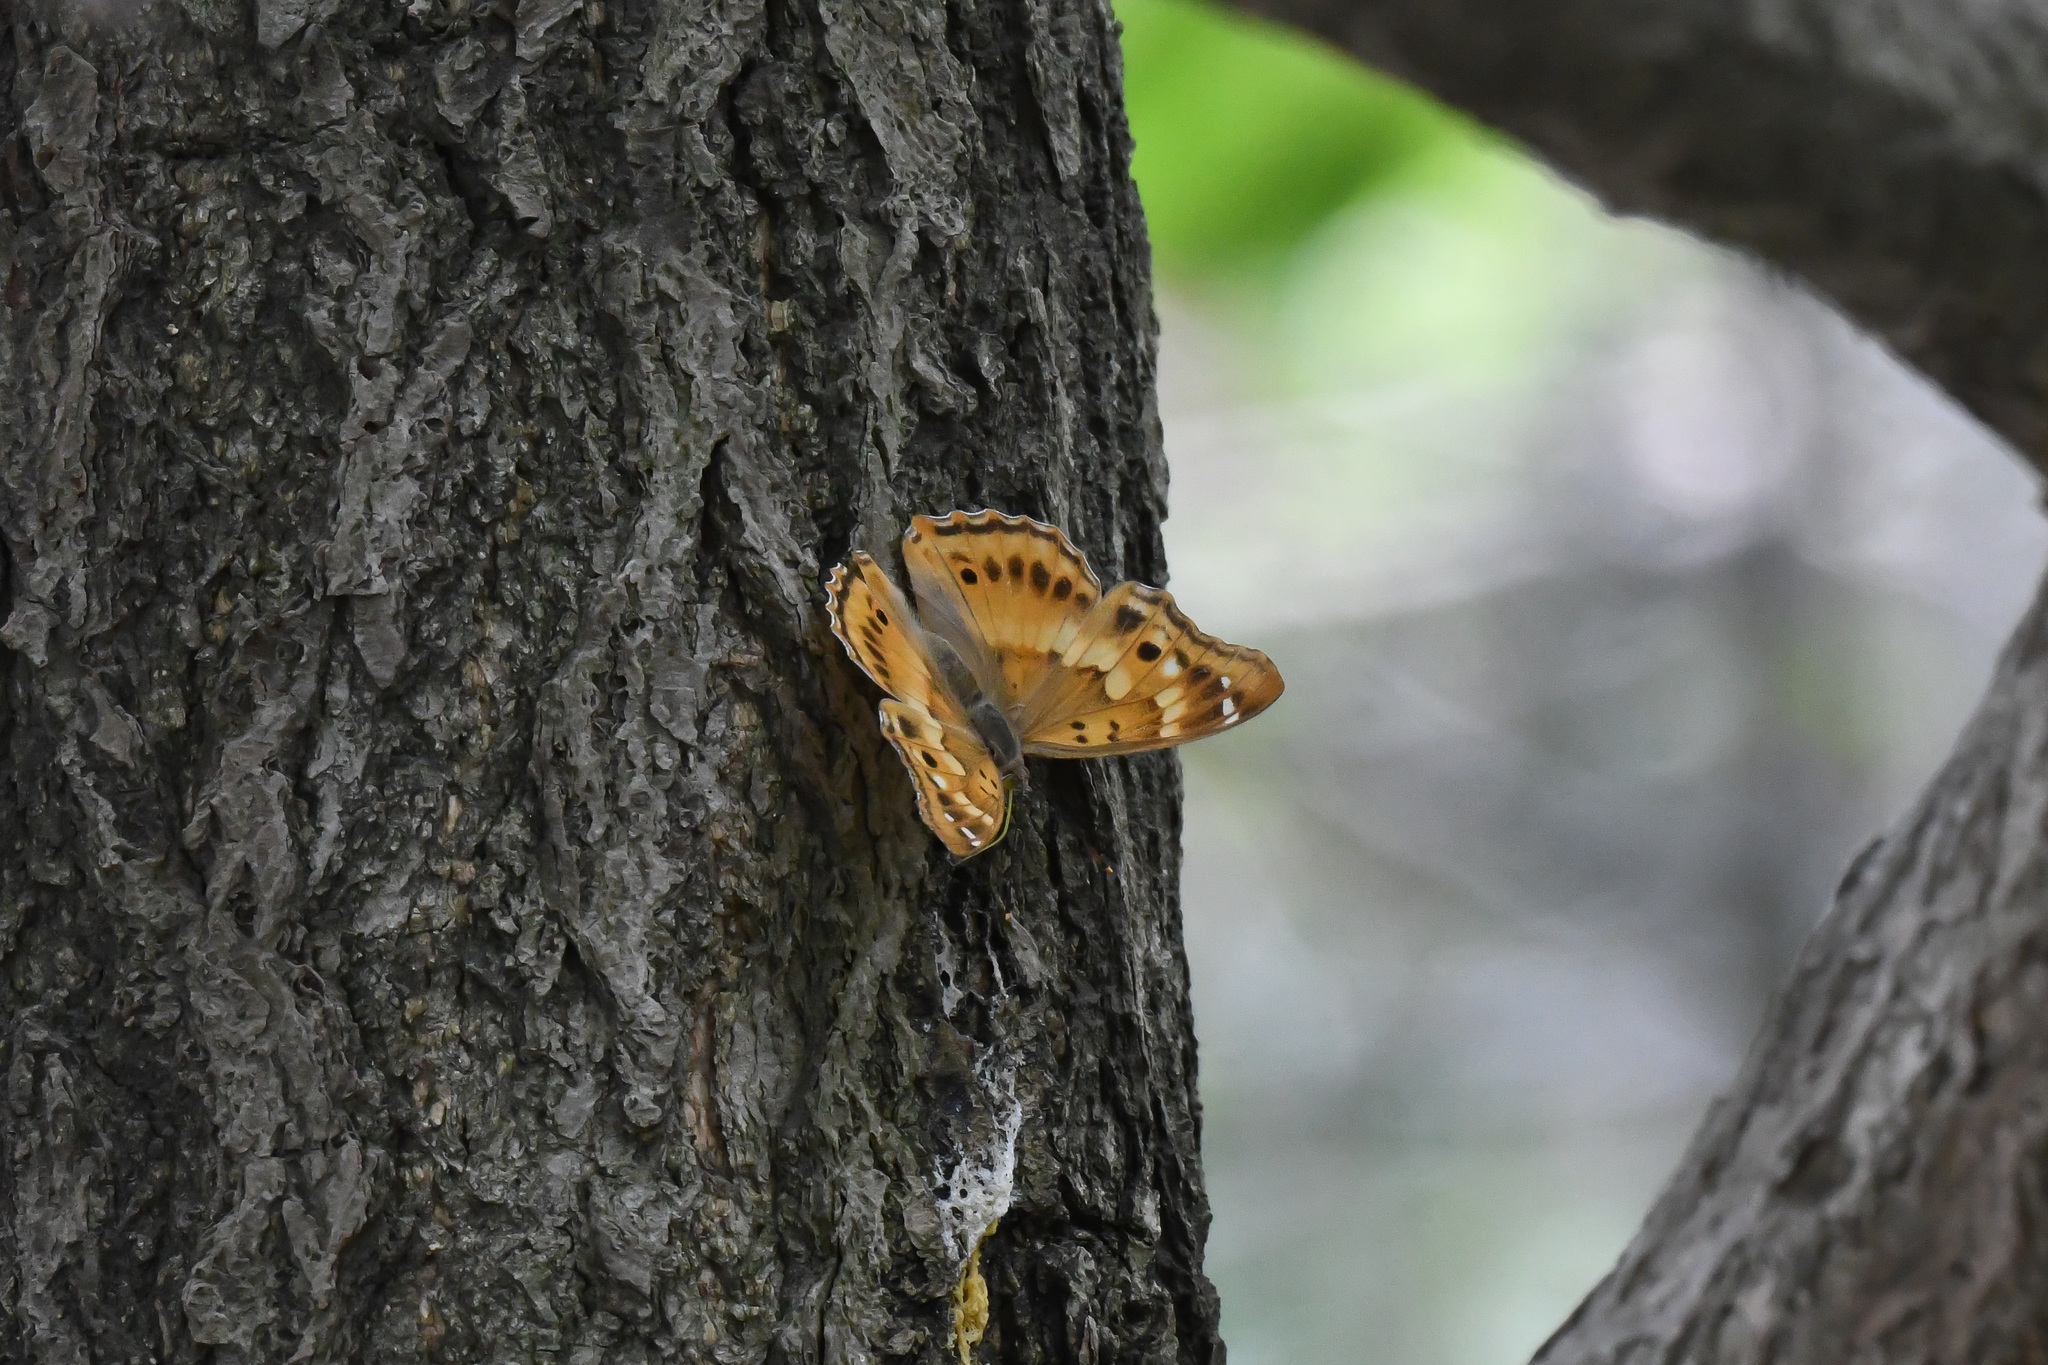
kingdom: Animalia
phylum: Arthropoda
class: Insecta
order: Lepidoptera
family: Nymphalidae
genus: Apatura
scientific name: Apatura ilia
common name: Lesser purple emperor
